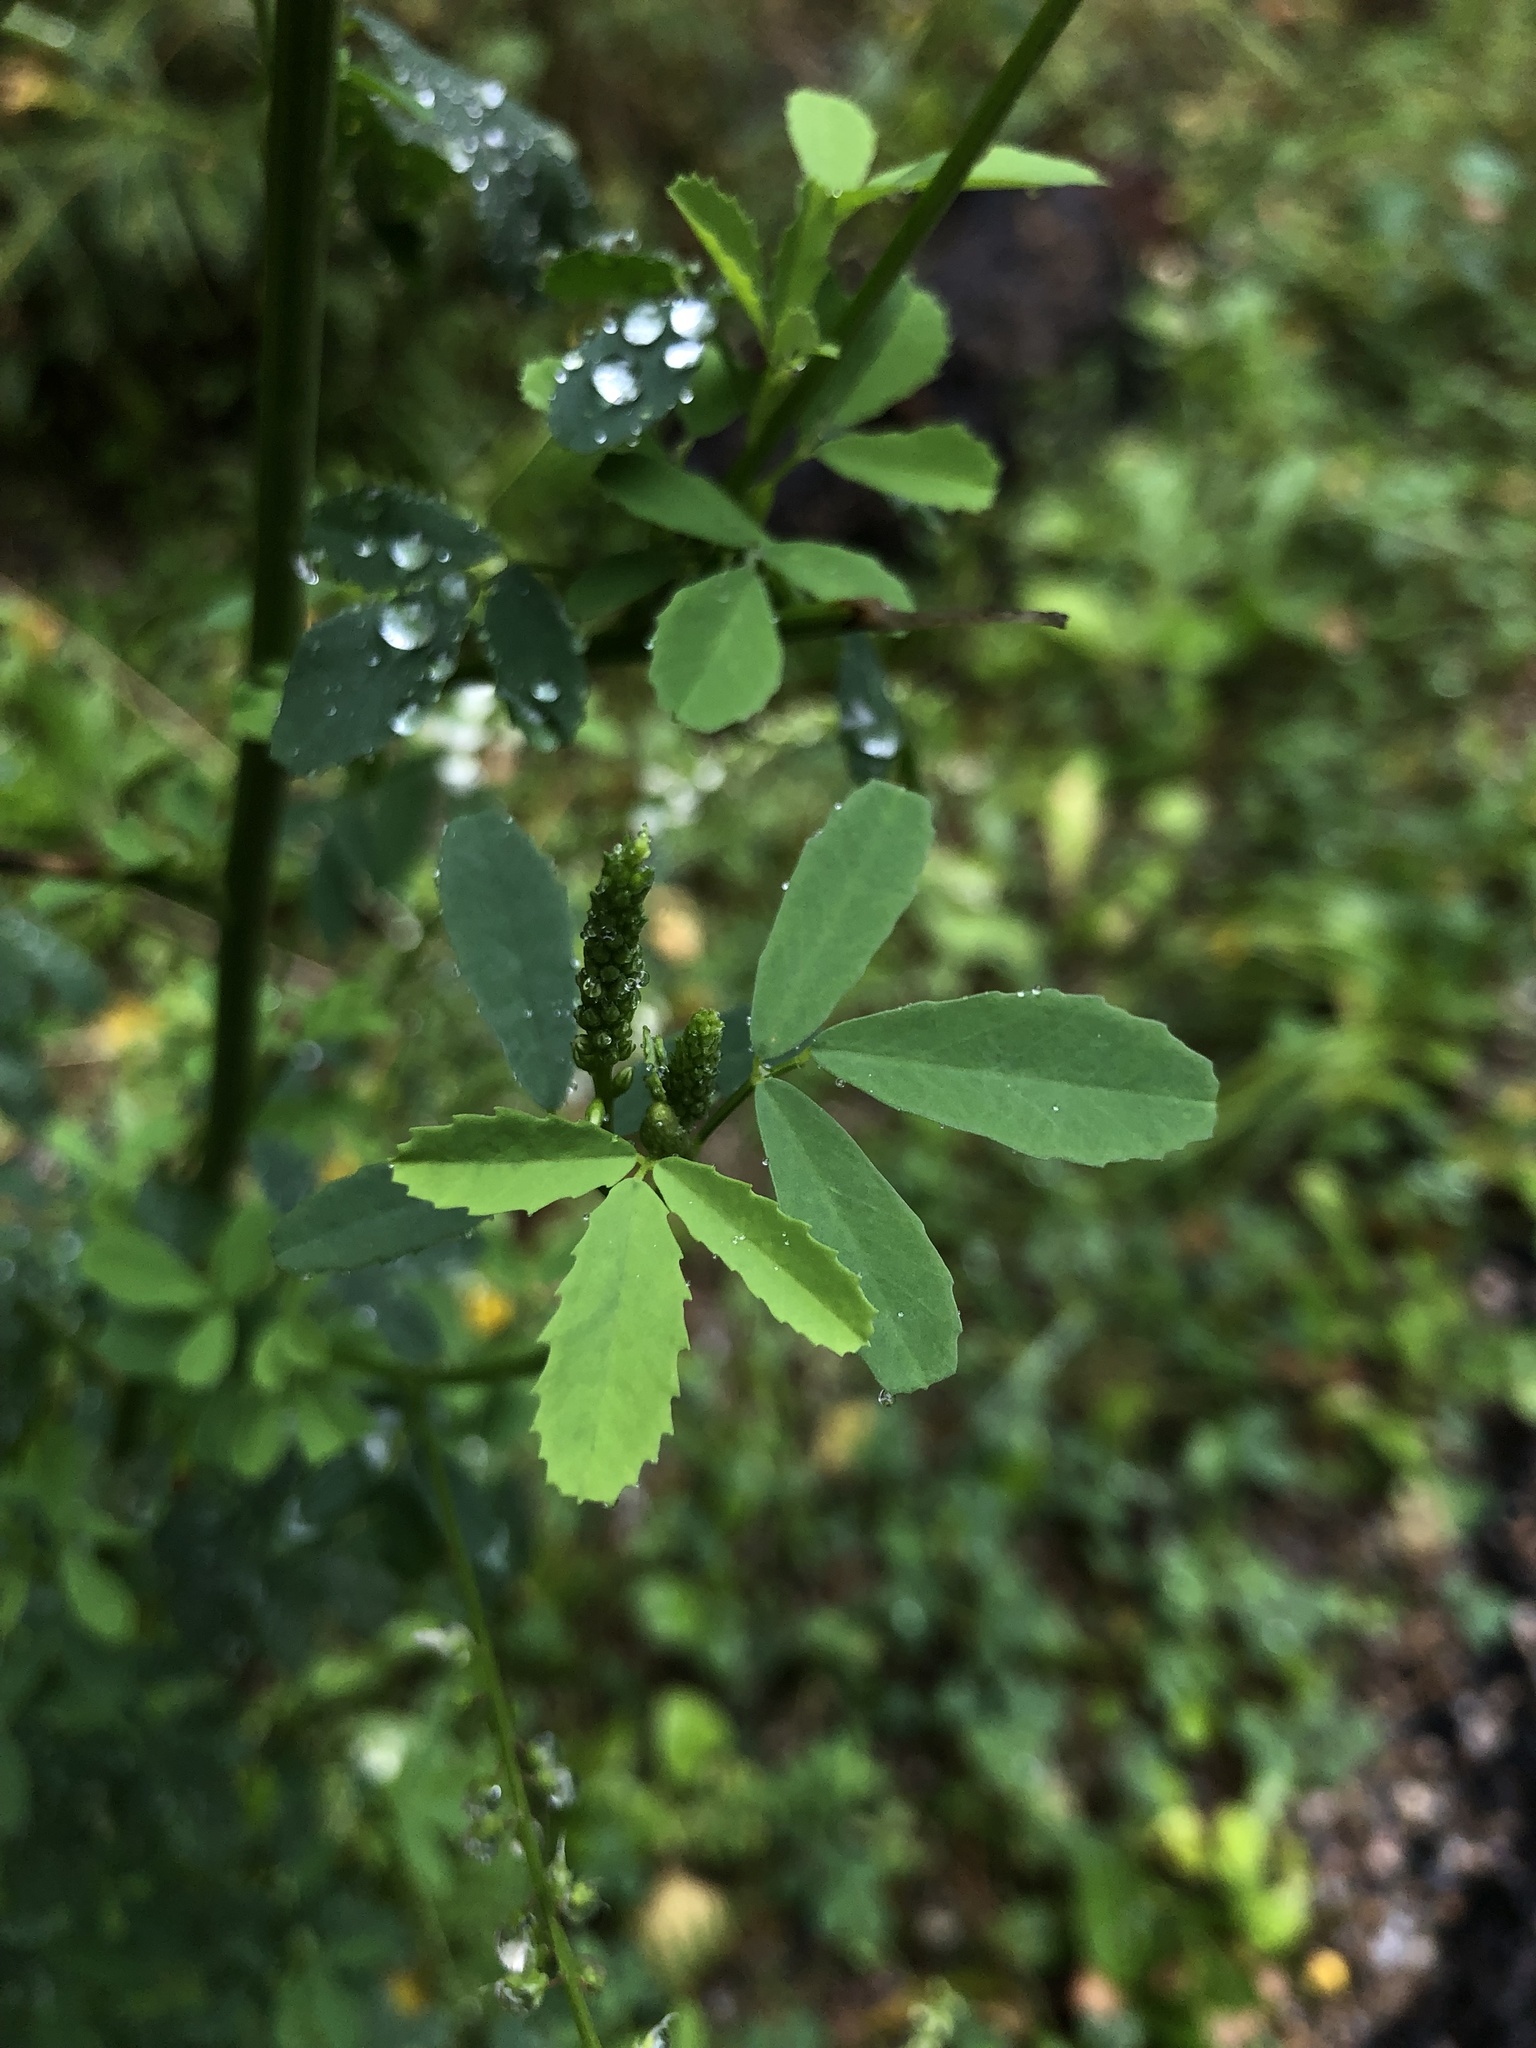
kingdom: Plantae
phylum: Tracheophyta
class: Magnoliopsida
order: Fabales
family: Fabaceae
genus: Melilotus
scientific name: Melilotus albus
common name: White melilot
